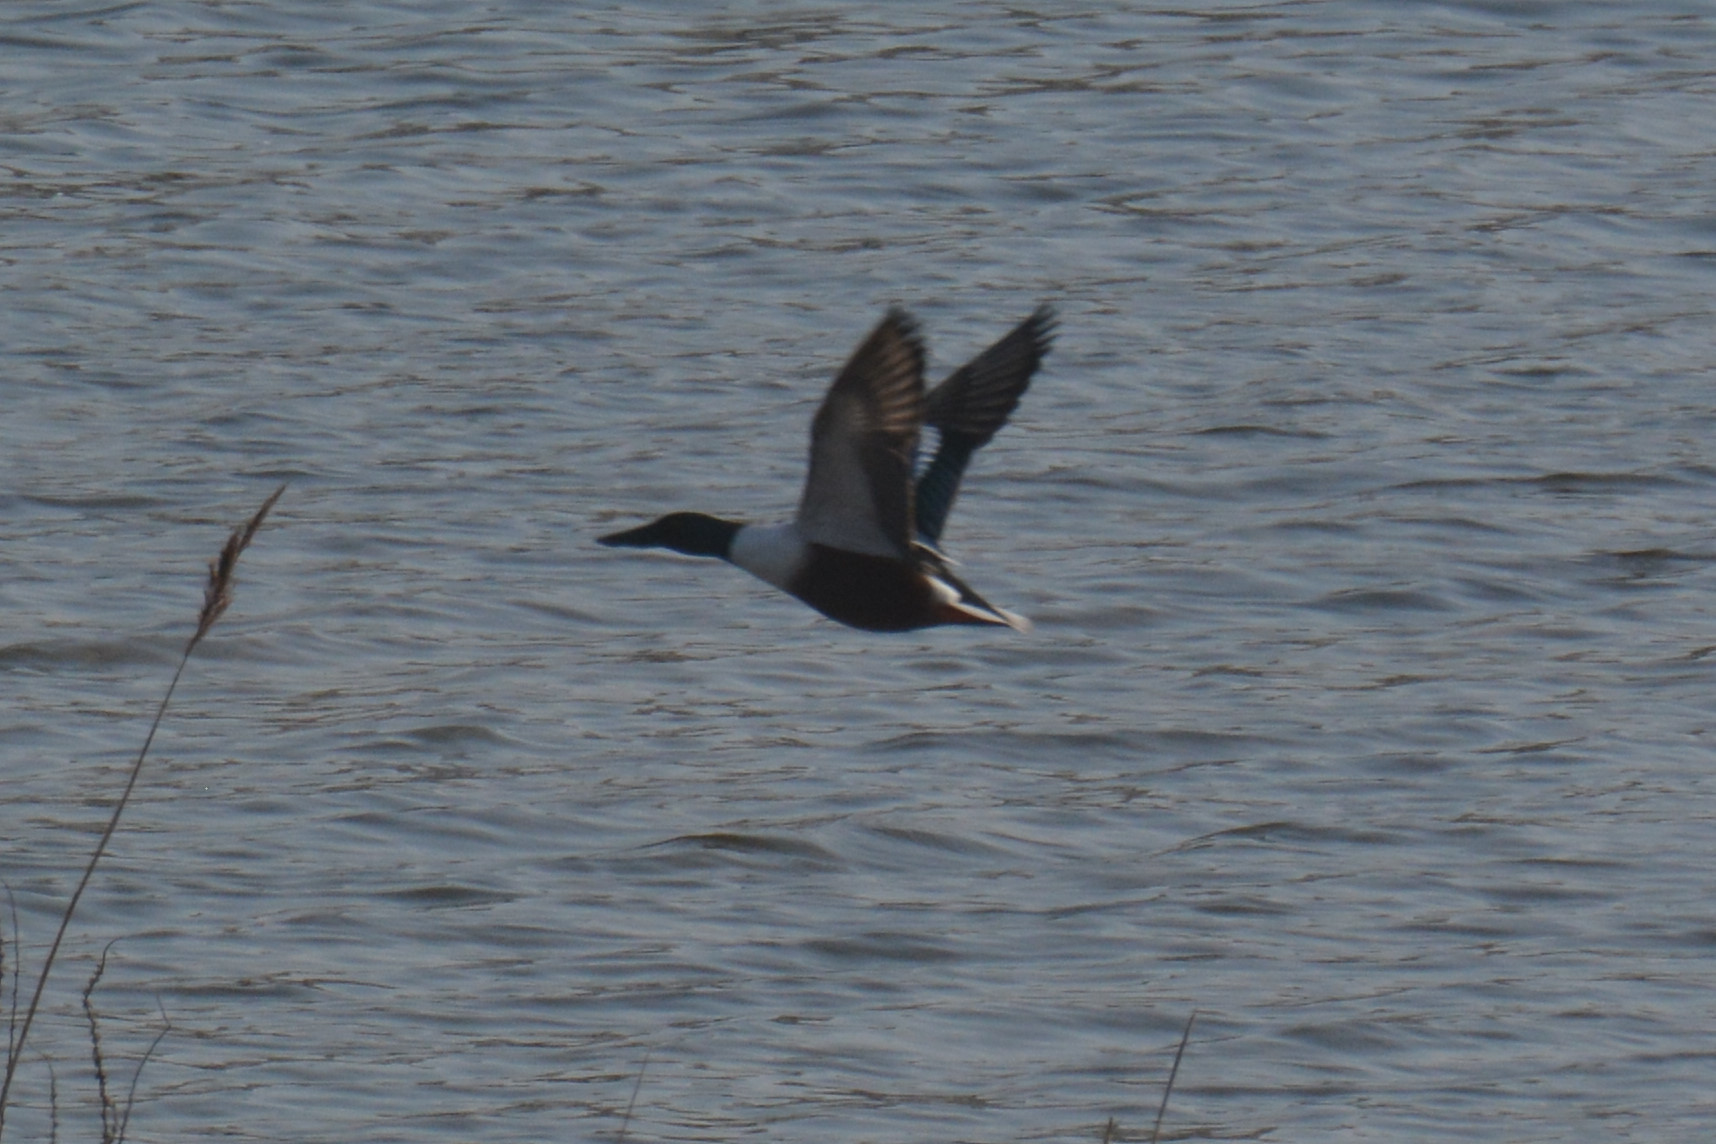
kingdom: Animalia
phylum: Chordata
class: Aves
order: Anseriformes
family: Anatidae
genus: Spatula
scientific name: Spatula clypeata
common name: Northern shoveler
